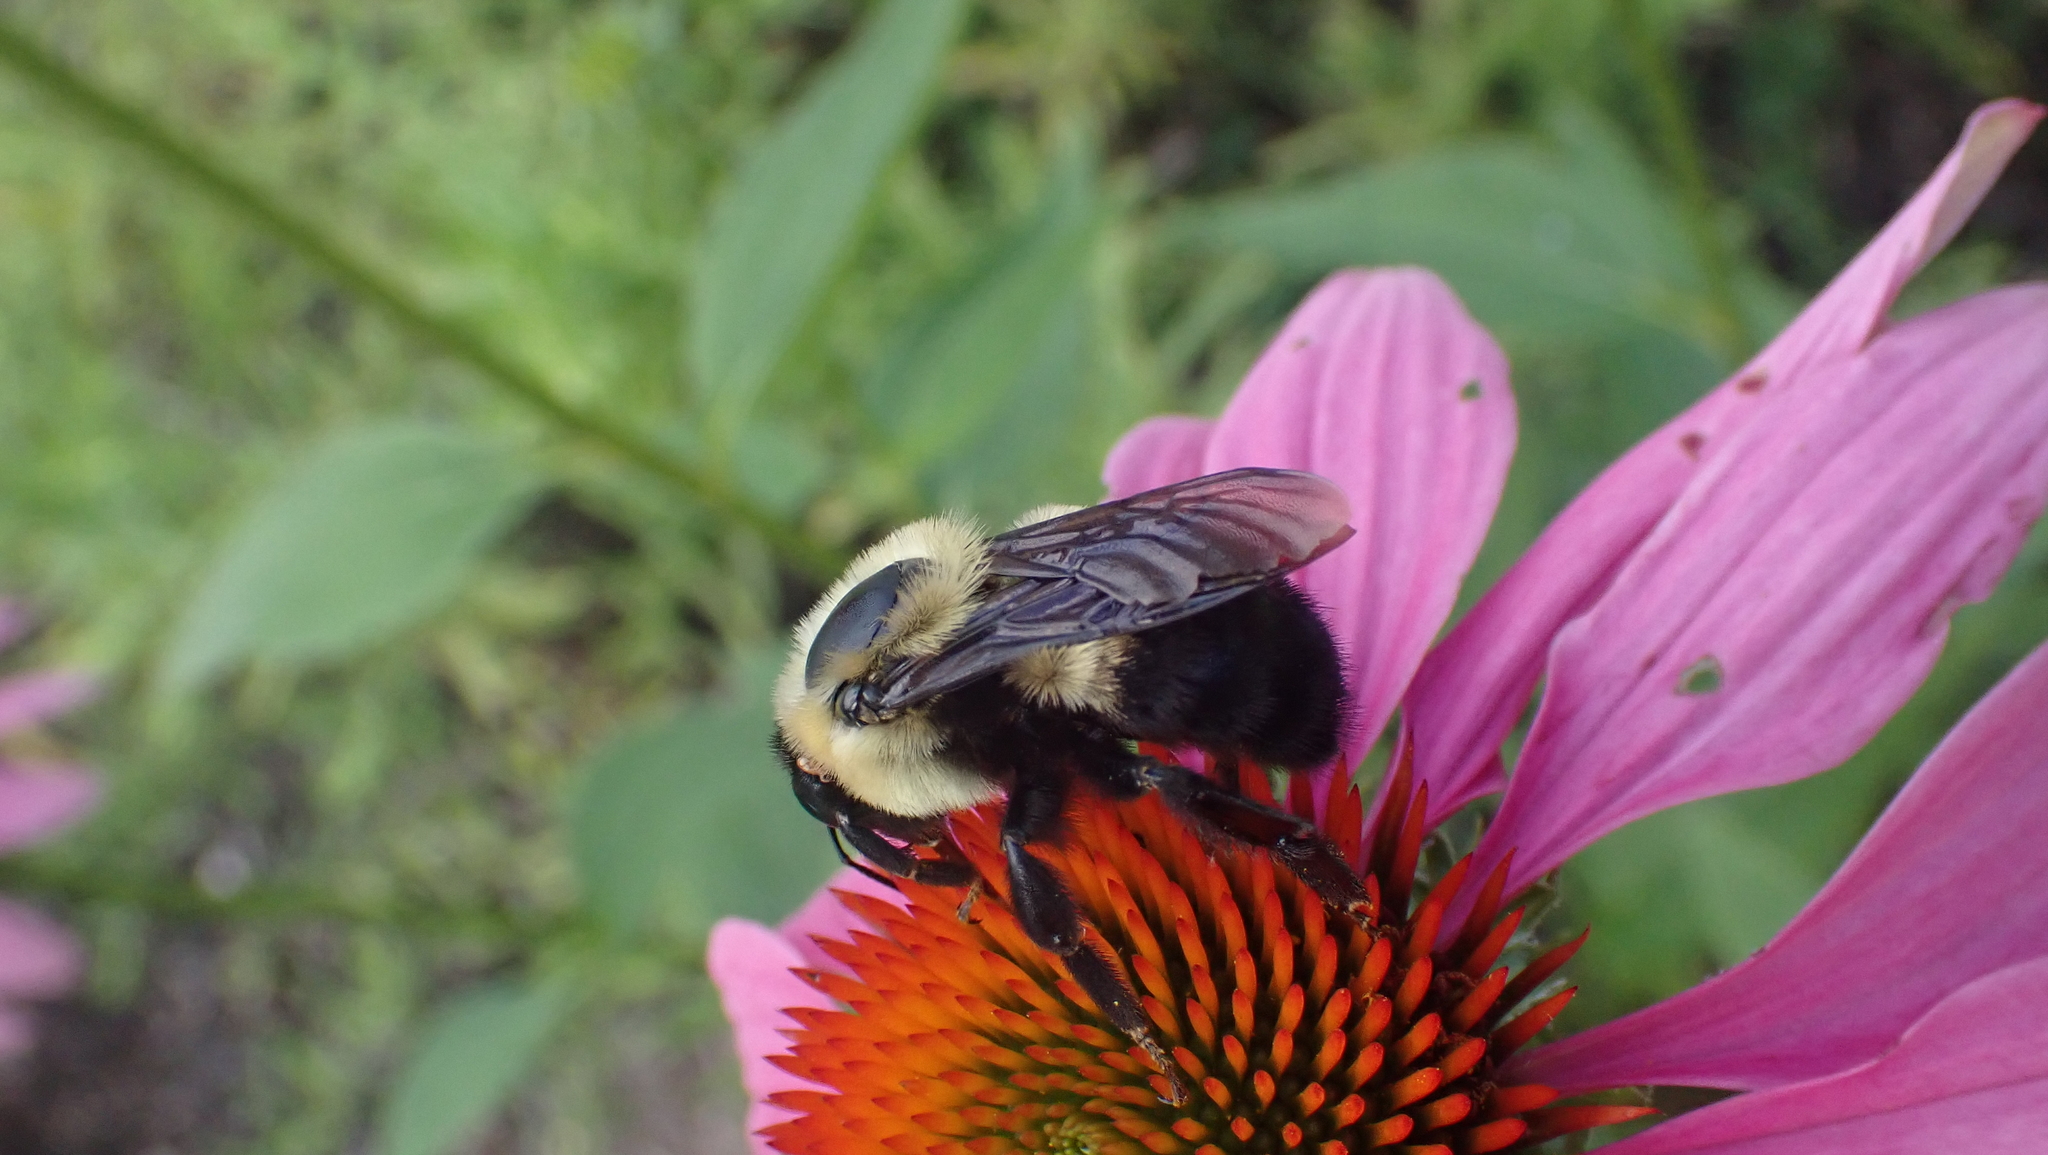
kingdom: Animalia
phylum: Arthropoda
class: Insecta
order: Hymenoptera
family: Apidae
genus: Bombus
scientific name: Bombus griseocollis
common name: Brown-belted bumble bee
